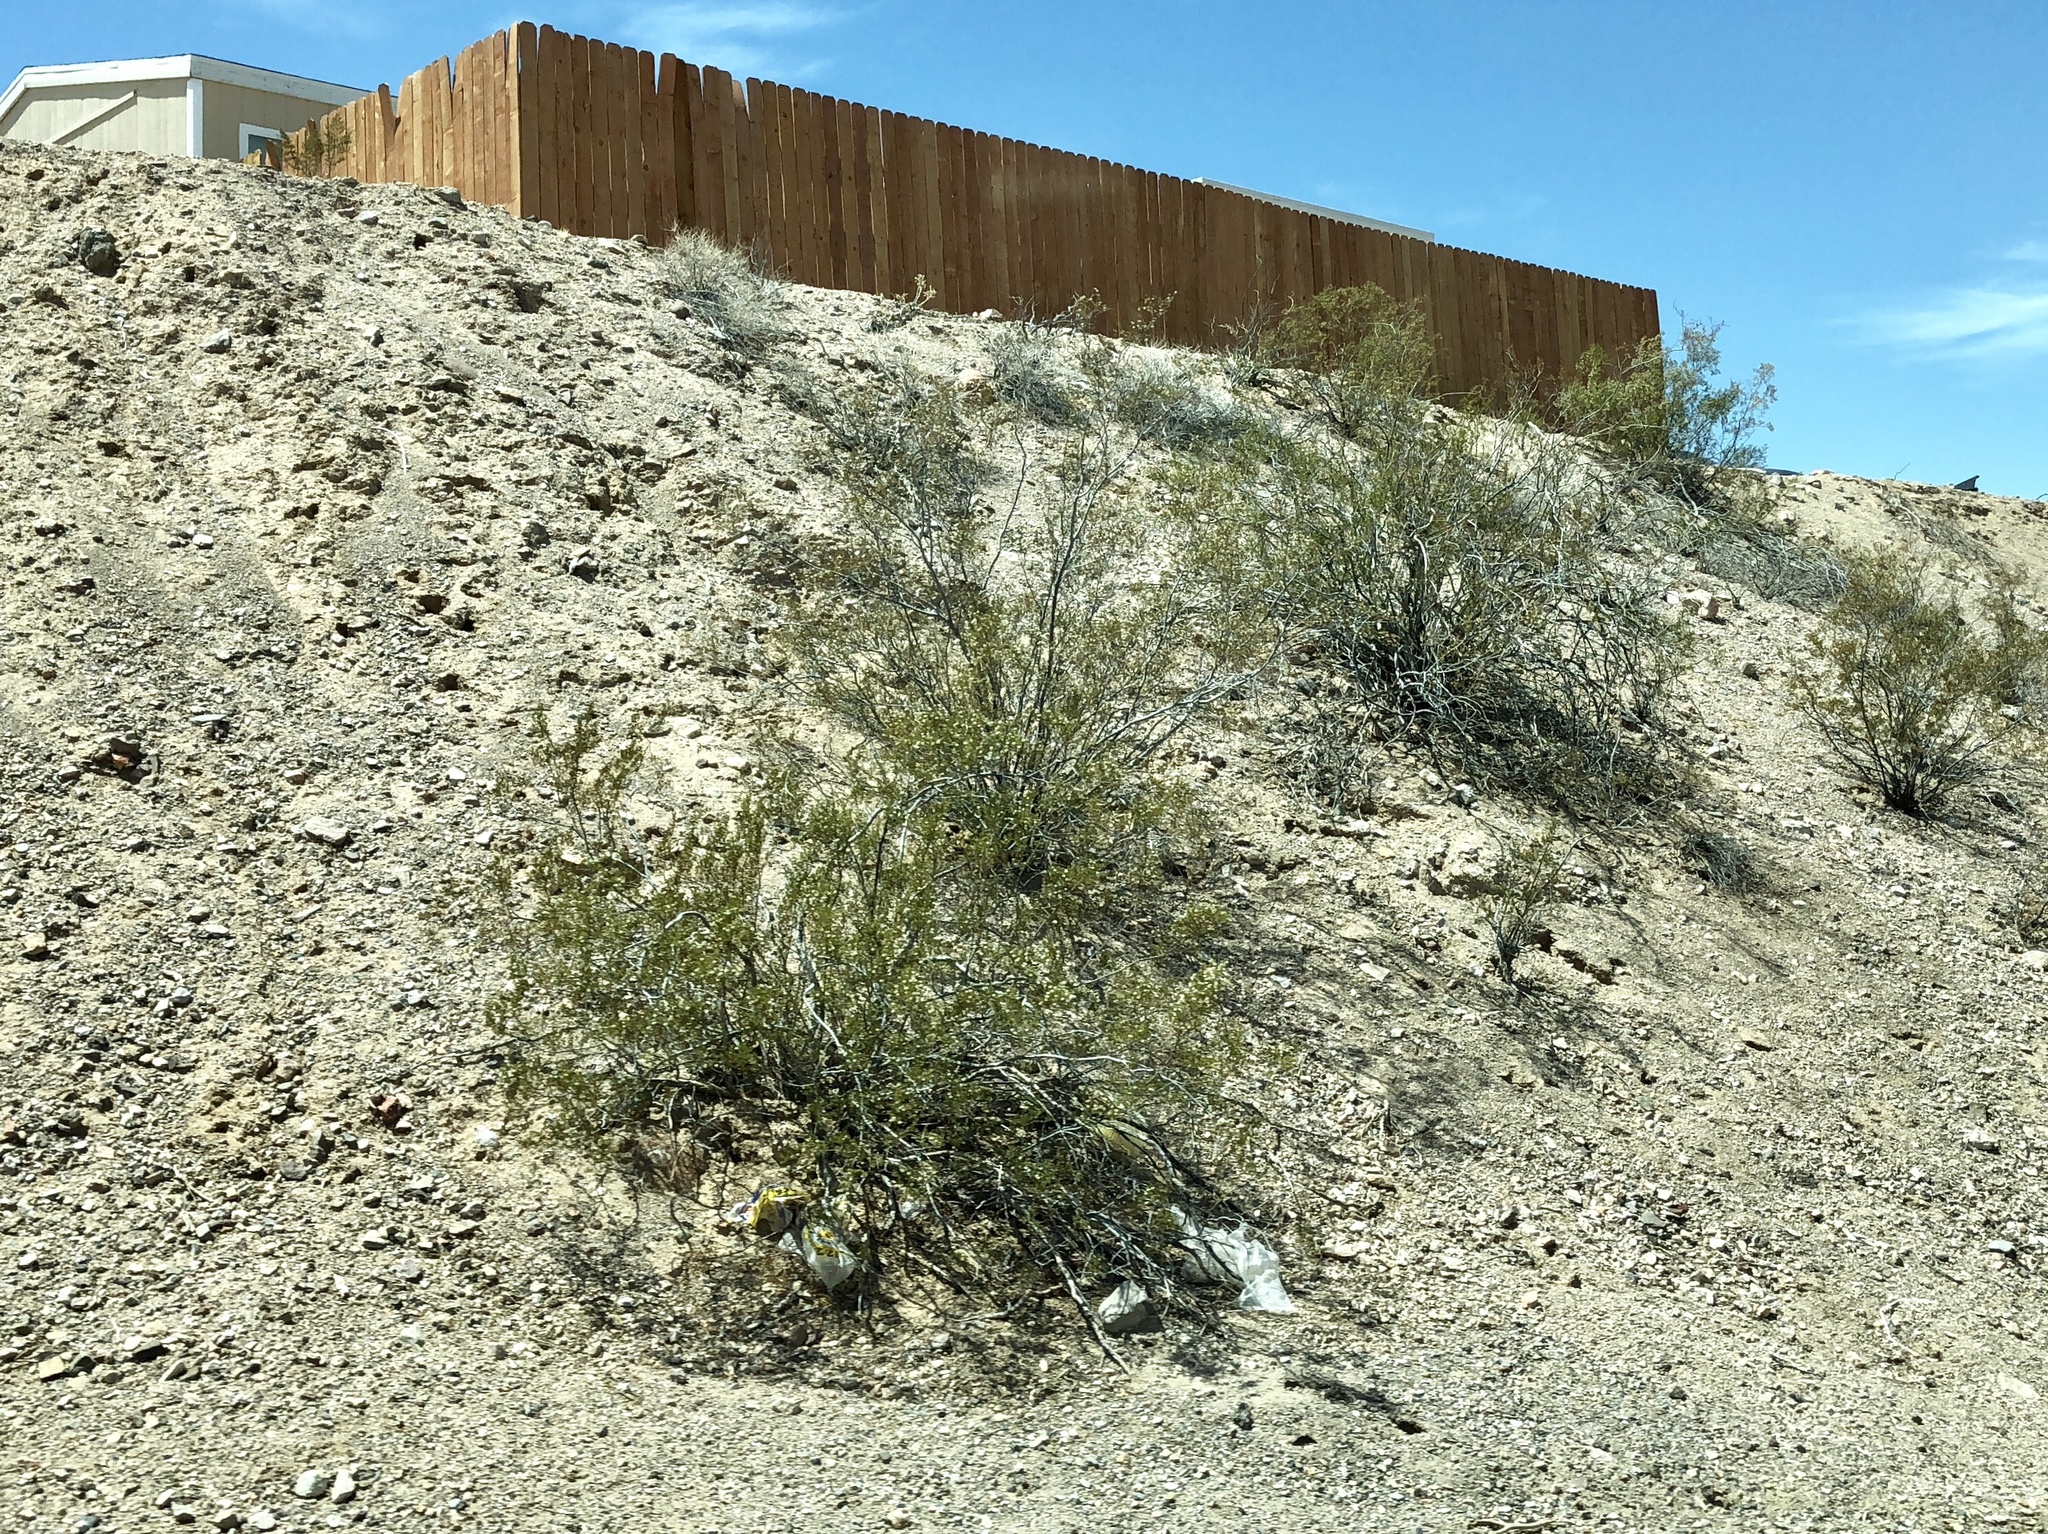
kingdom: Plantae
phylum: Tracheophyta
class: Magnoliopsida
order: Zygophyllales
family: Zygophyllaceae
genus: Larrea
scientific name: Larrea tridentata
